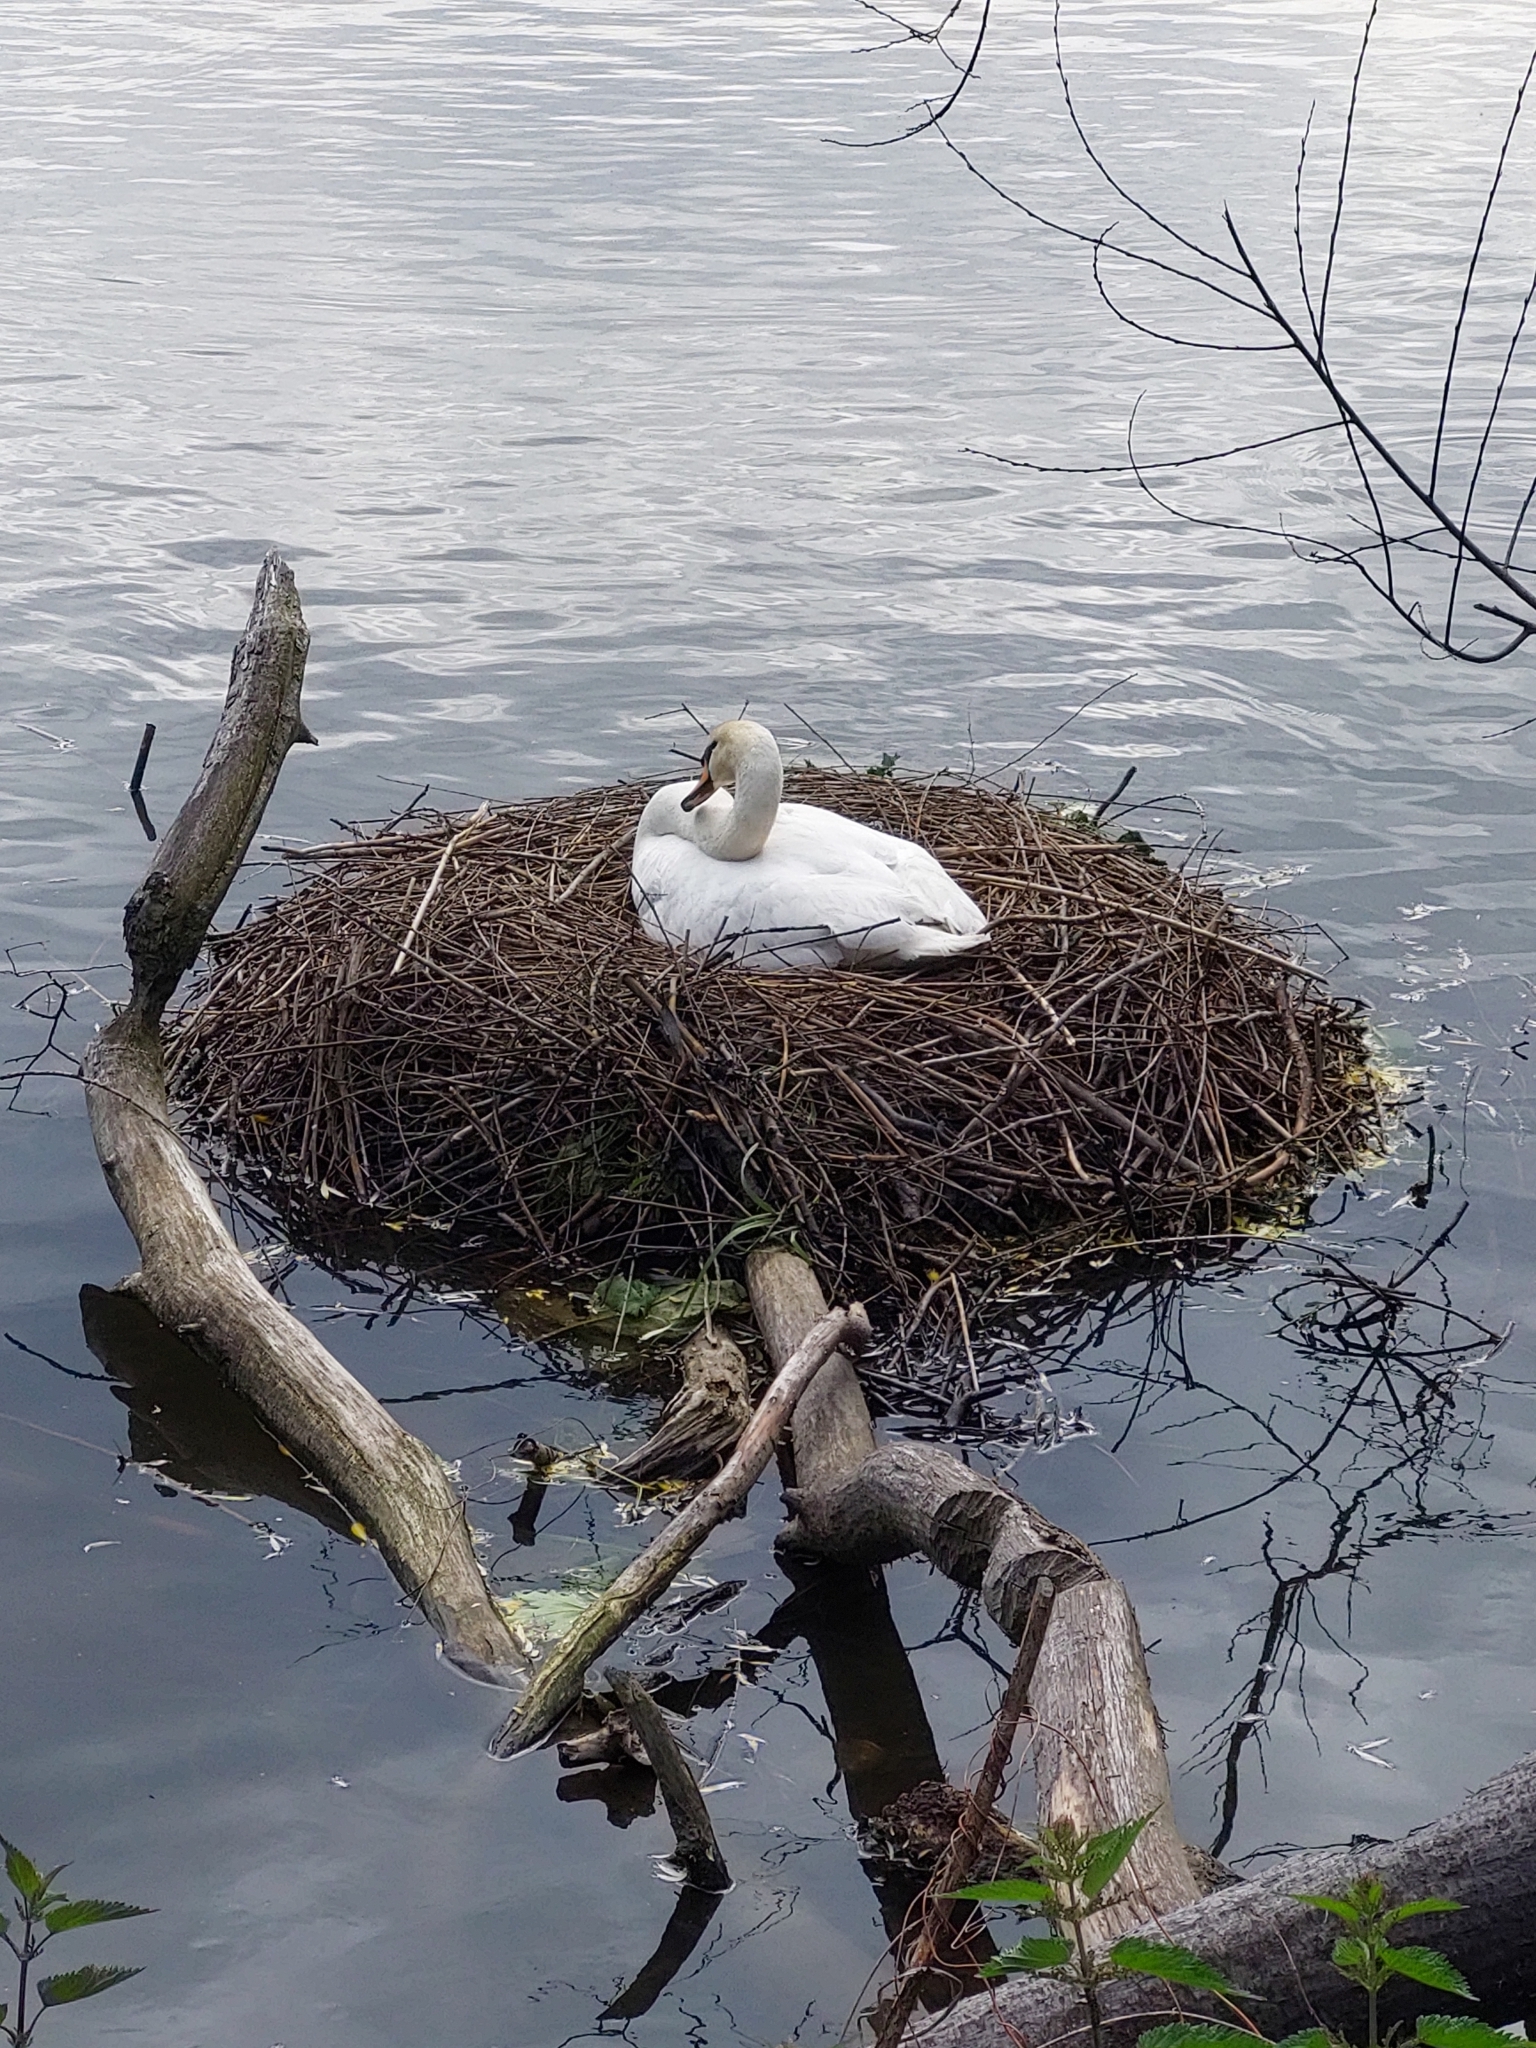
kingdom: Animalia
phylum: Chordata
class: Aves
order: Anseriformes
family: Anatidae
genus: Cygnus
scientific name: Cygnus olor
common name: Mute swan
